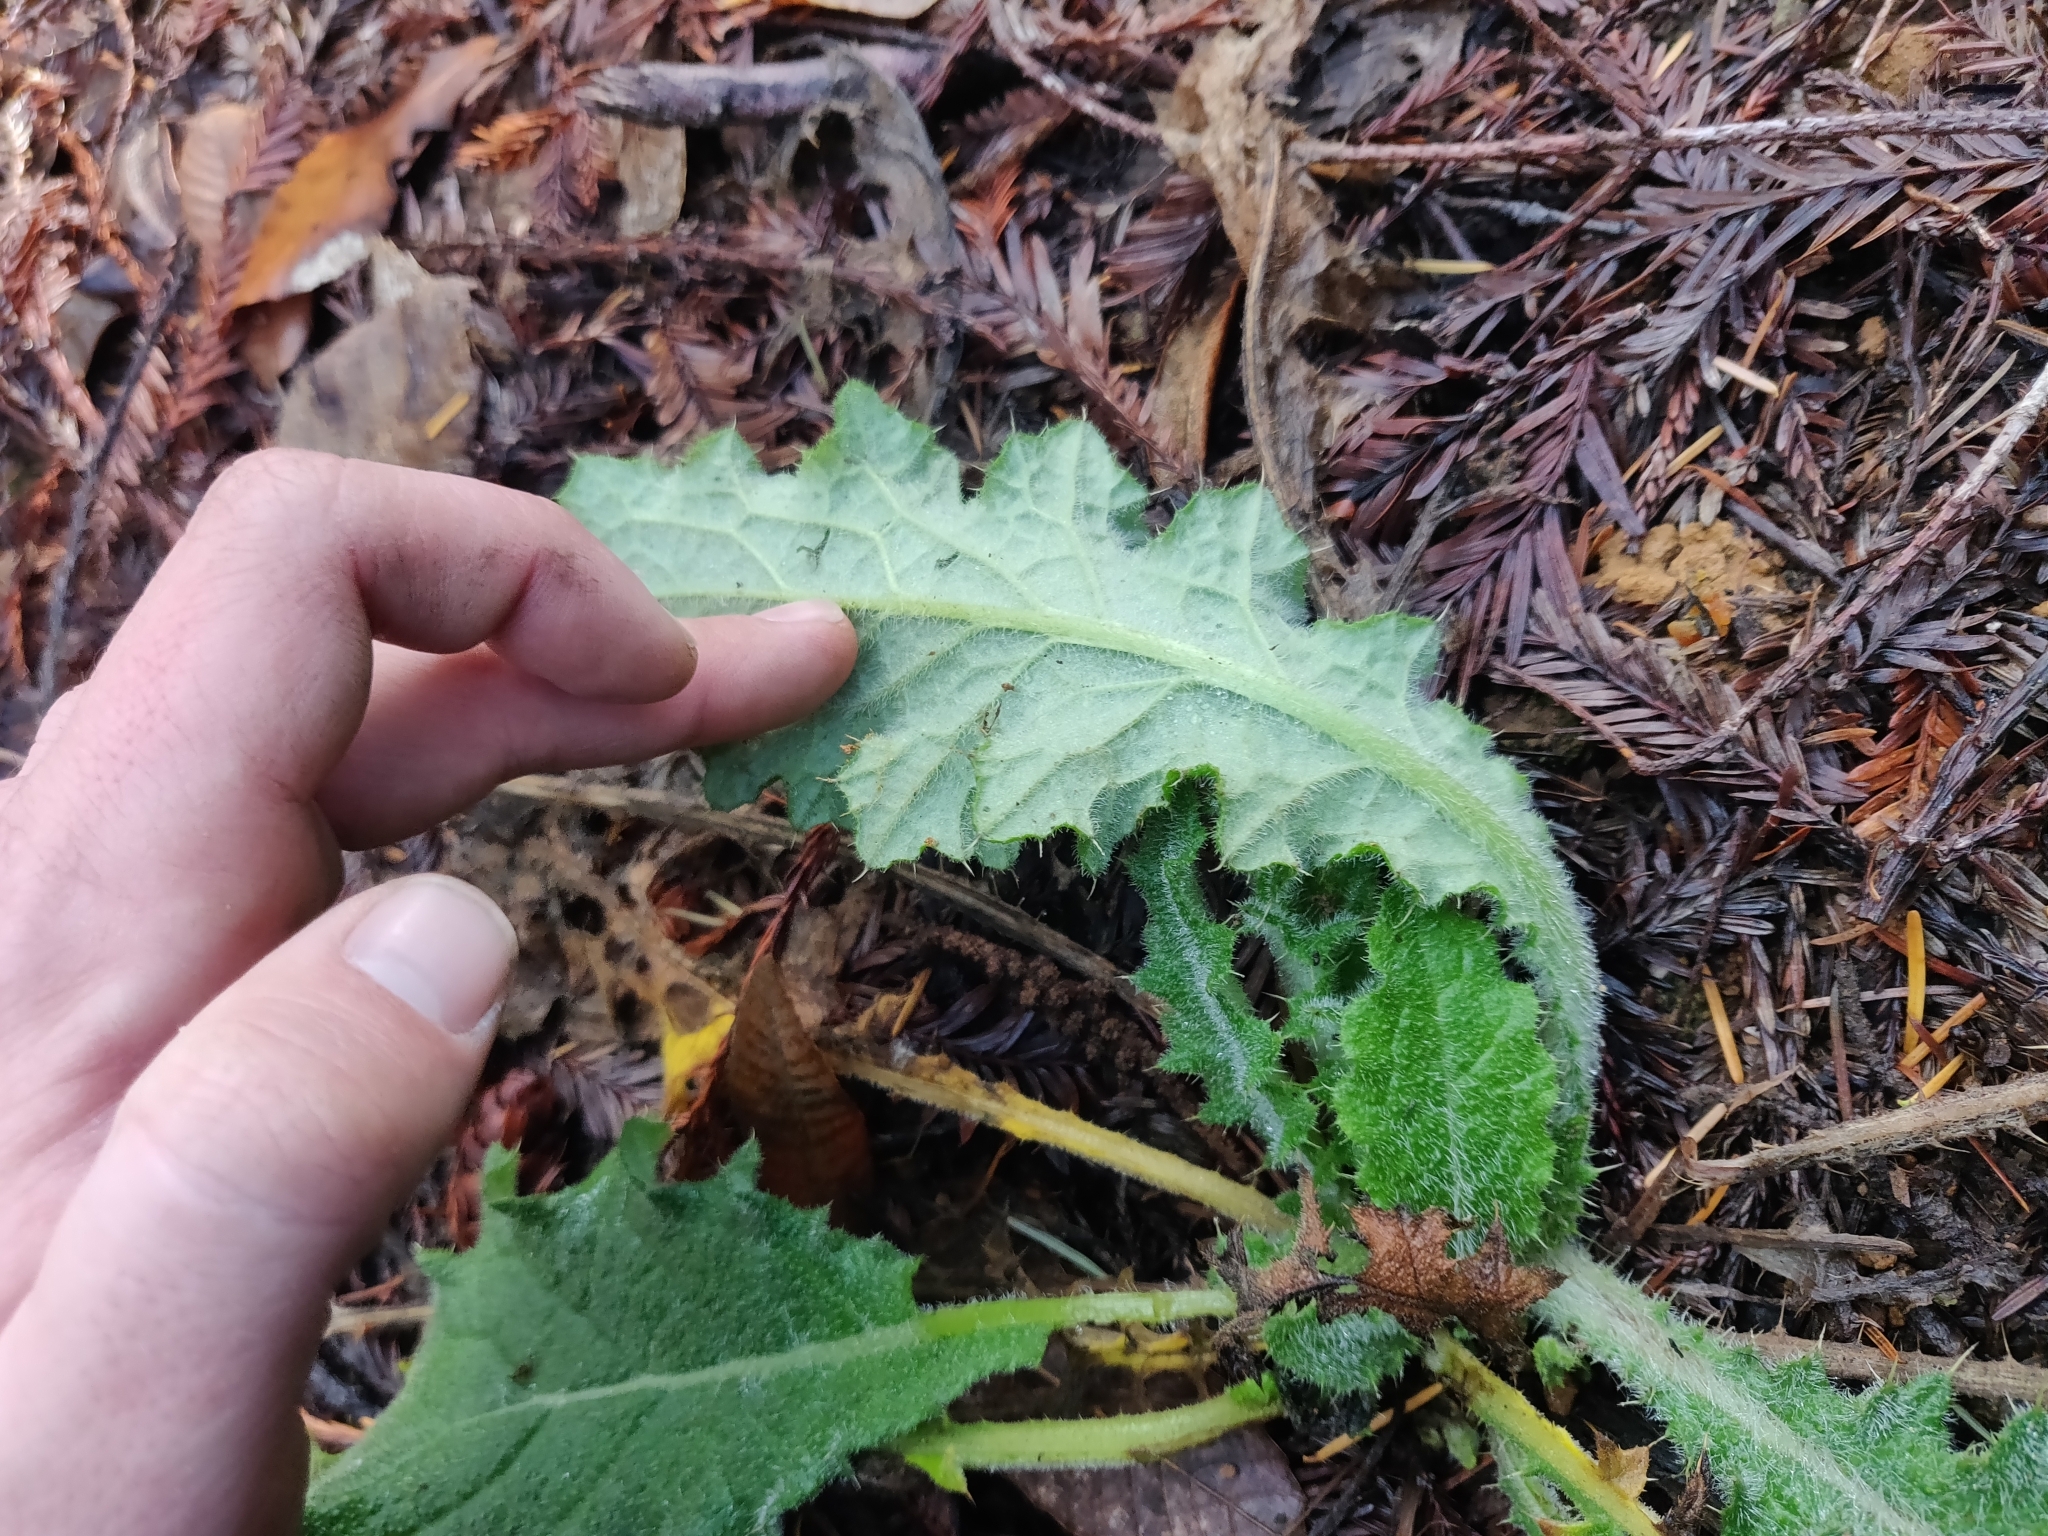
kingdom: Plantae
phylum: Tracheophyta
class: Magnoliopsida
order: Asterales
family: Asteraceae
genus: Cirsium
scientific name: Cirsium vulgare
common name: Bull thistle
